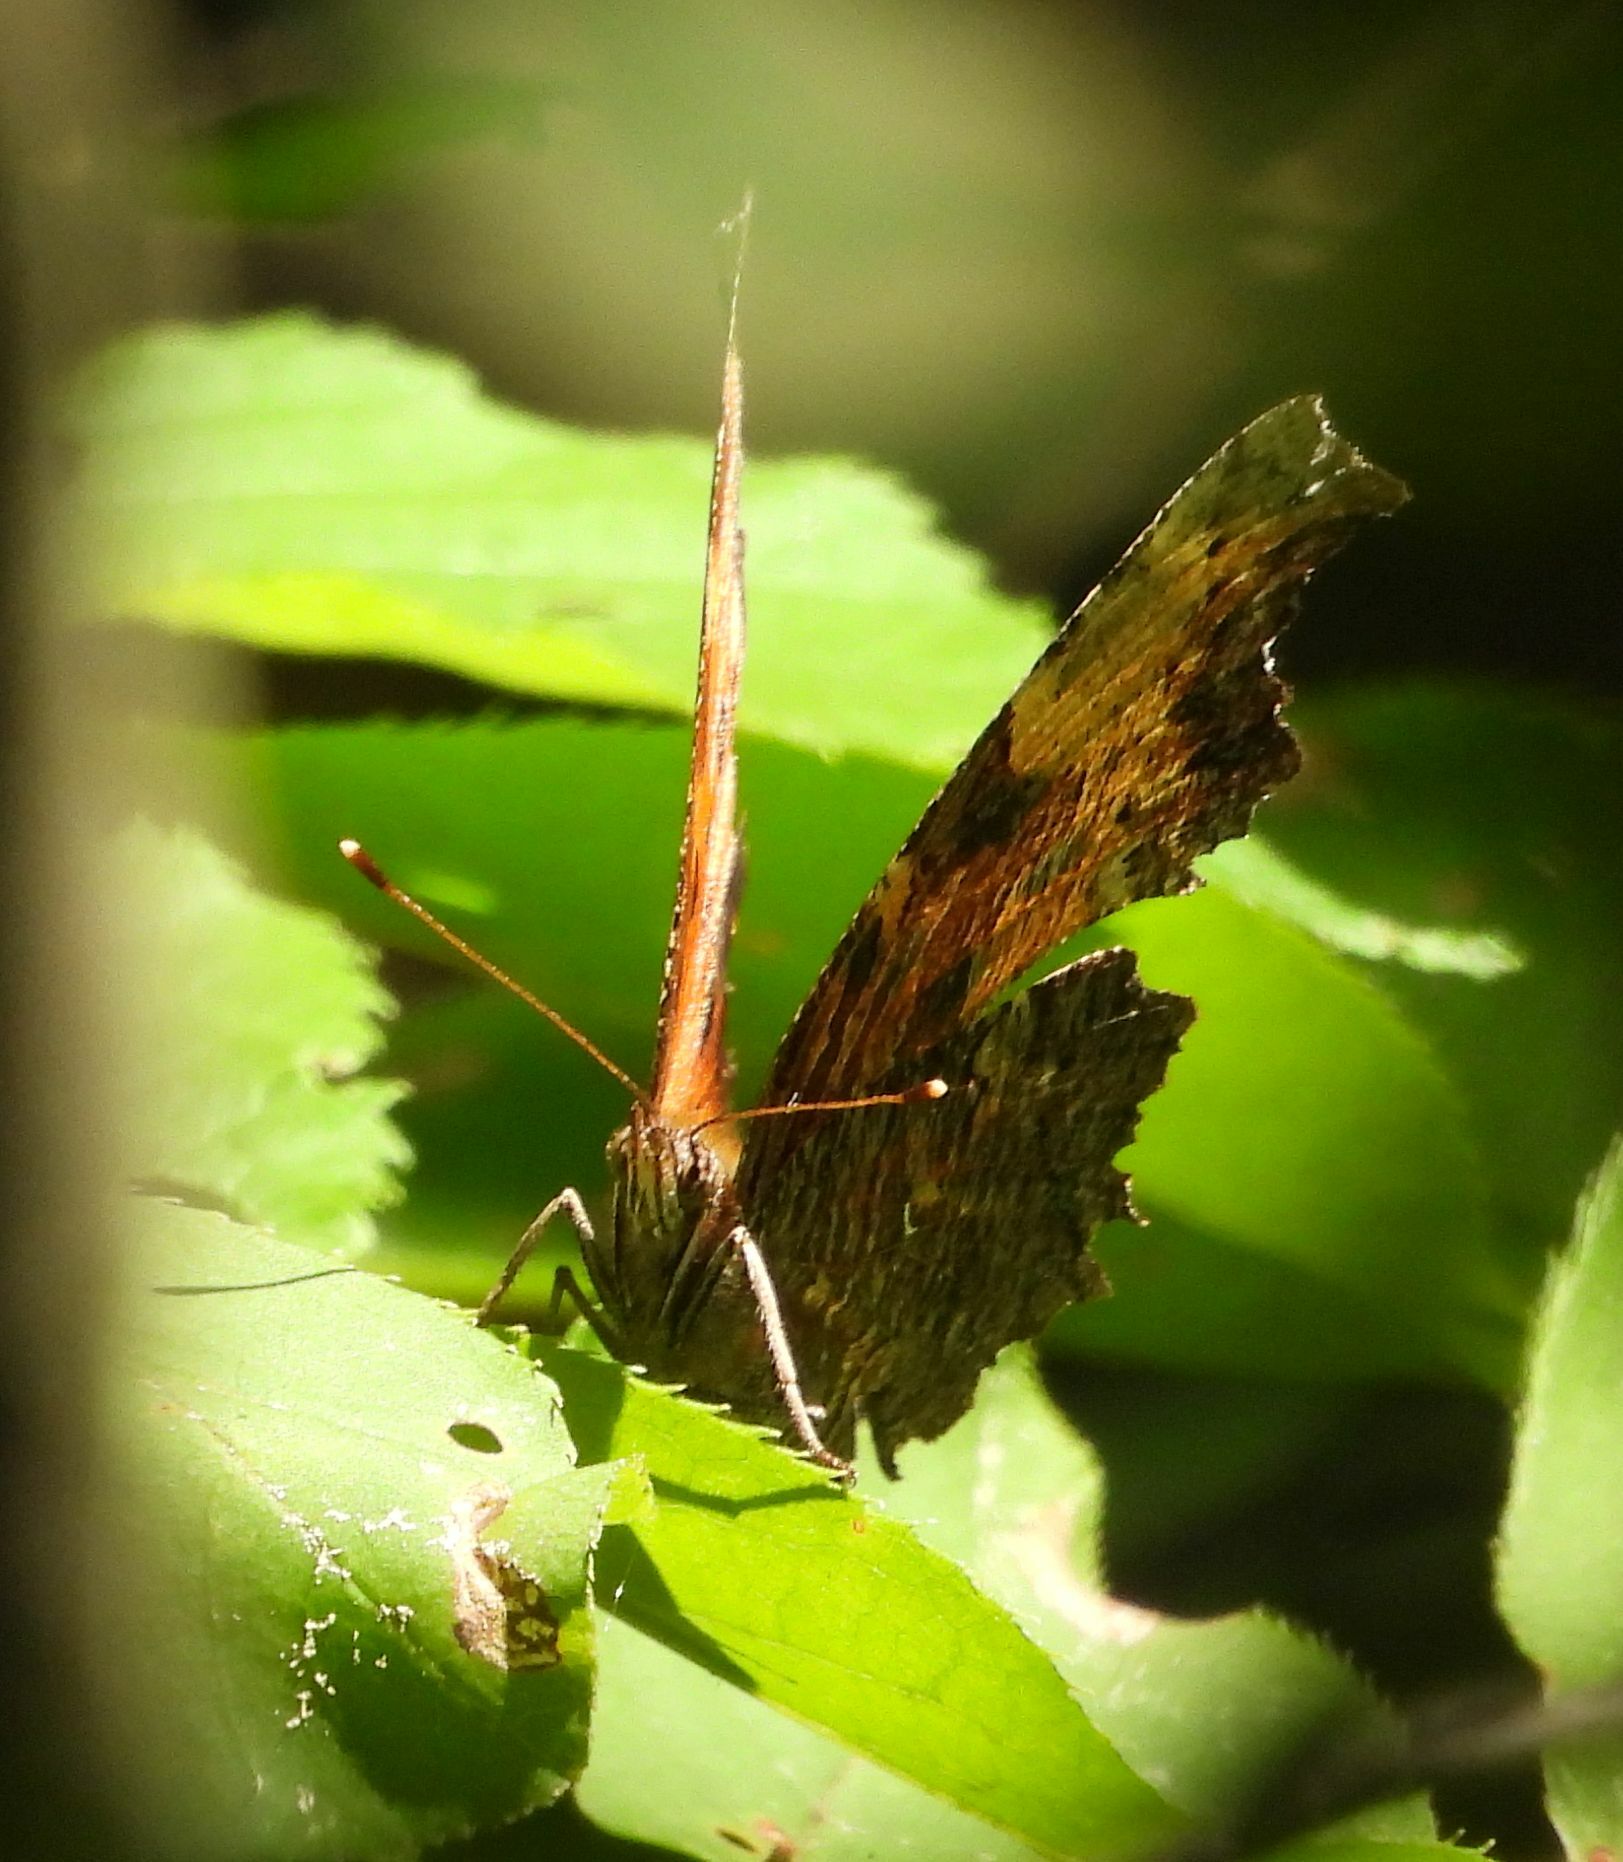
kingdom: Animalia
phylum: Arthropoda
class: Insecta
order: Lepidoptera
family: Nymphalidae
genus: Polygonia
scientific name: Polygonia progne
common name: Gray comma
